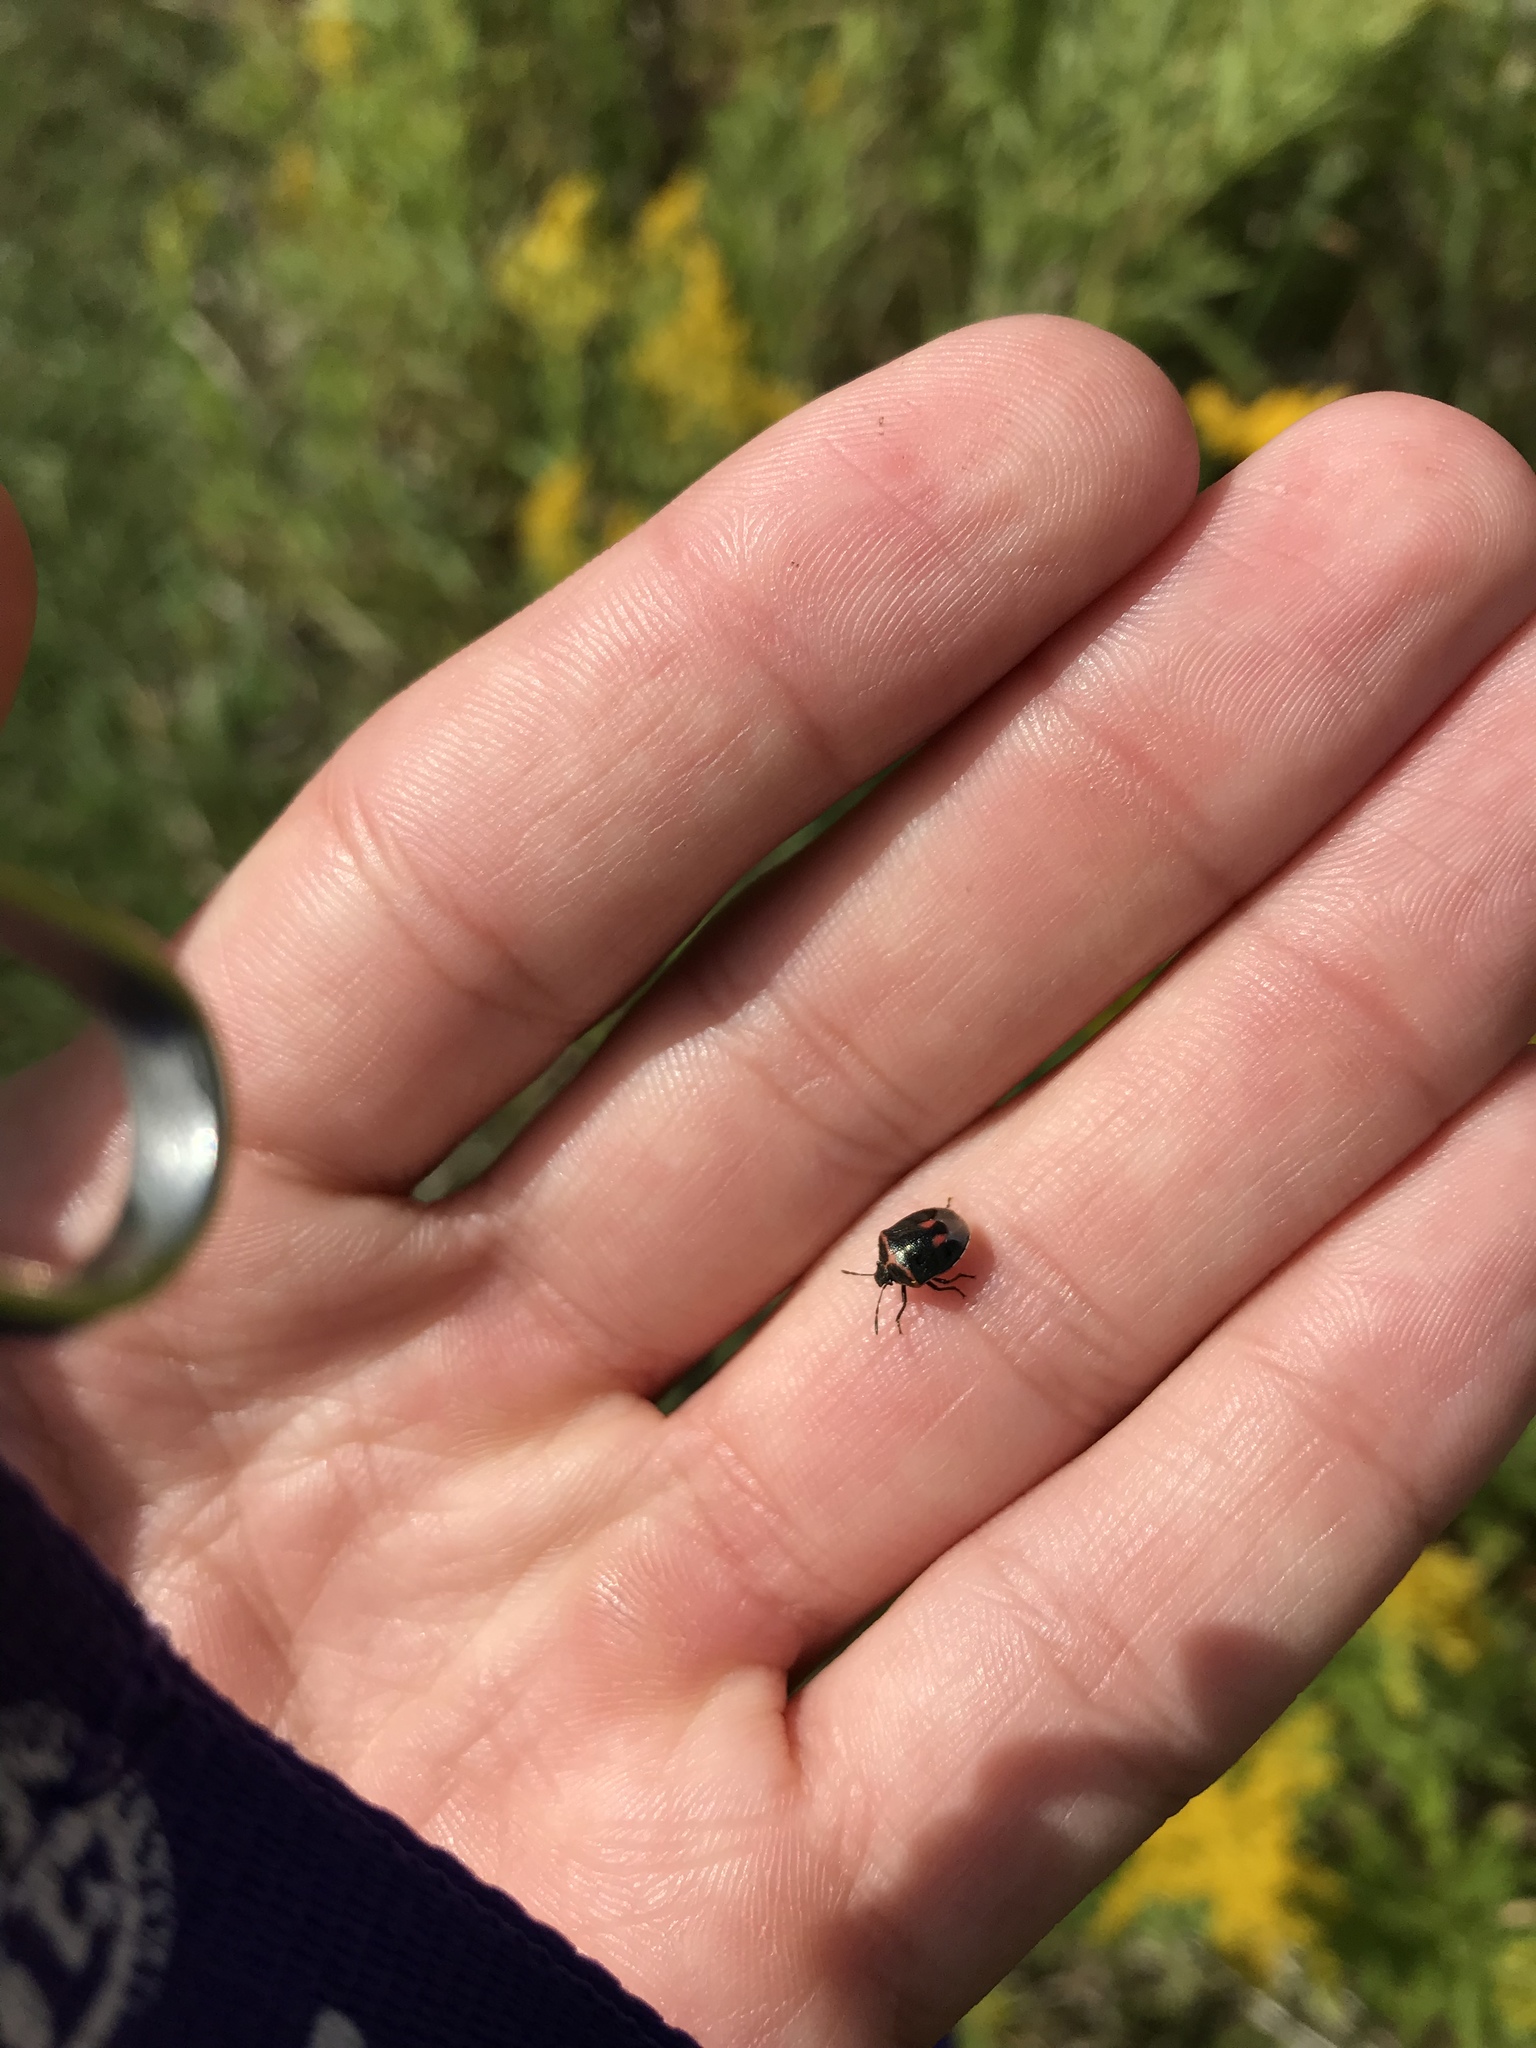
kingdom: Animalia
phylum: Arthropoda
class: Insecta
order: Hemiptera
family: Pentatomidae
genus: Cosmopepla
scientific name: Cosmopepla lintneriana
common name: Twice-stabbed stink bug
